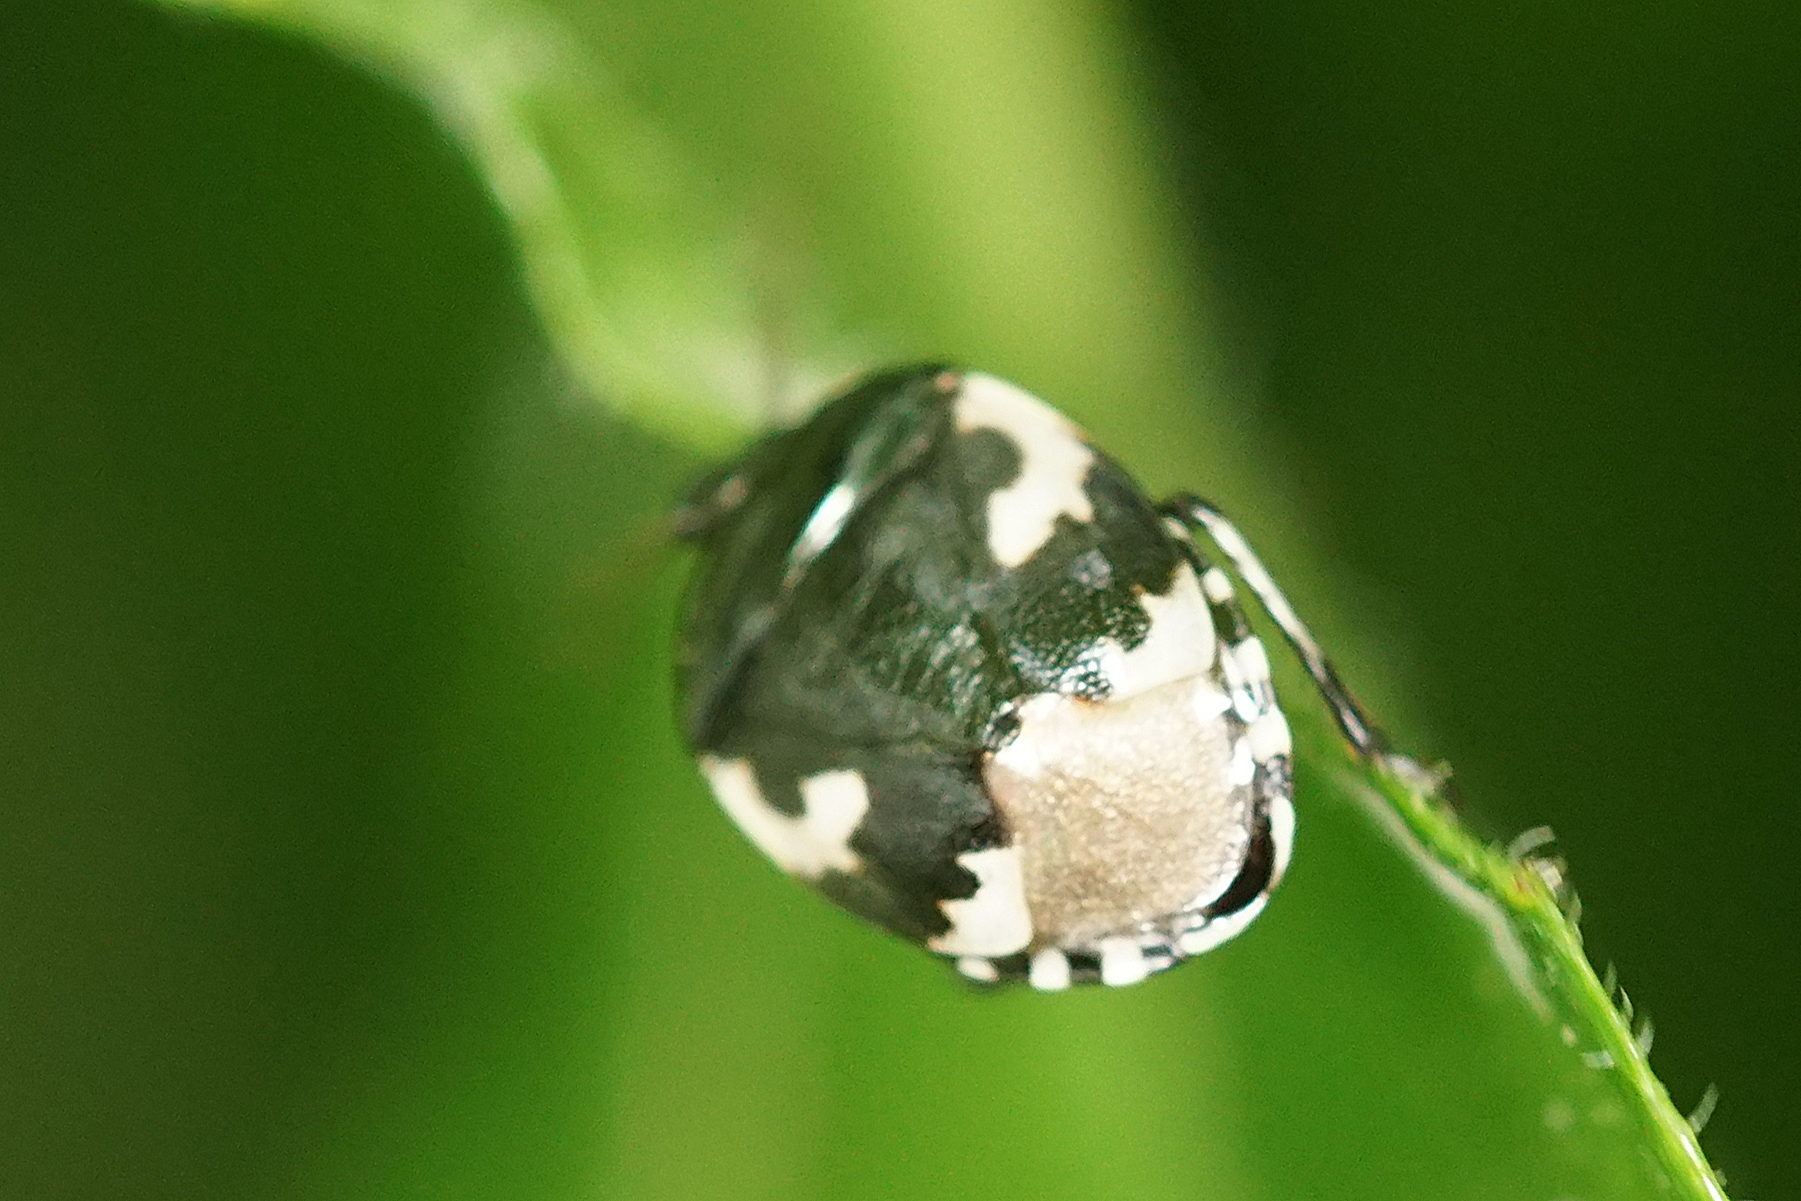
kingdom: Animalia
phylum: Arthropoda
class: Insecta
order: Hemiptera
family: Cydnidae
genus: Tritomegas
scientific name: Tritomegas bicolor
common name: Pied shieldbug
